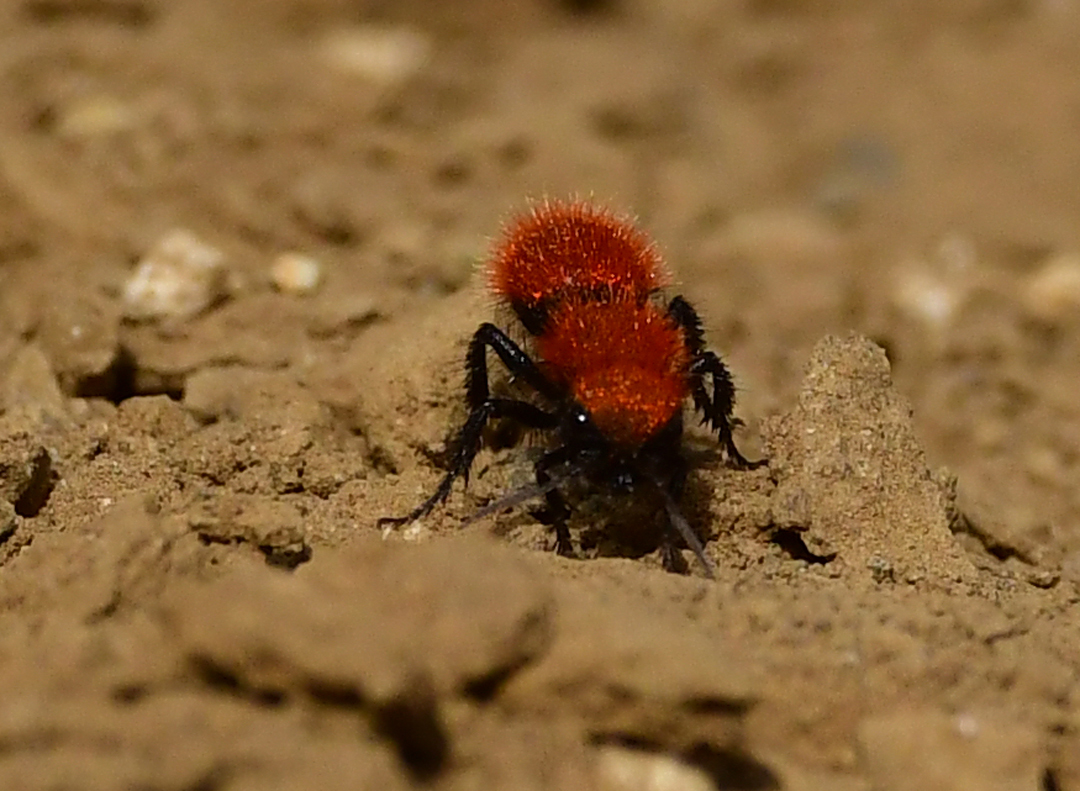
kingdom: Animalia
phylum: Arthropoda
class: Insecta
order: Hymenoptera
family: Mutillidae
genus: Dasymutilla
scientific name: Dasymutilla
